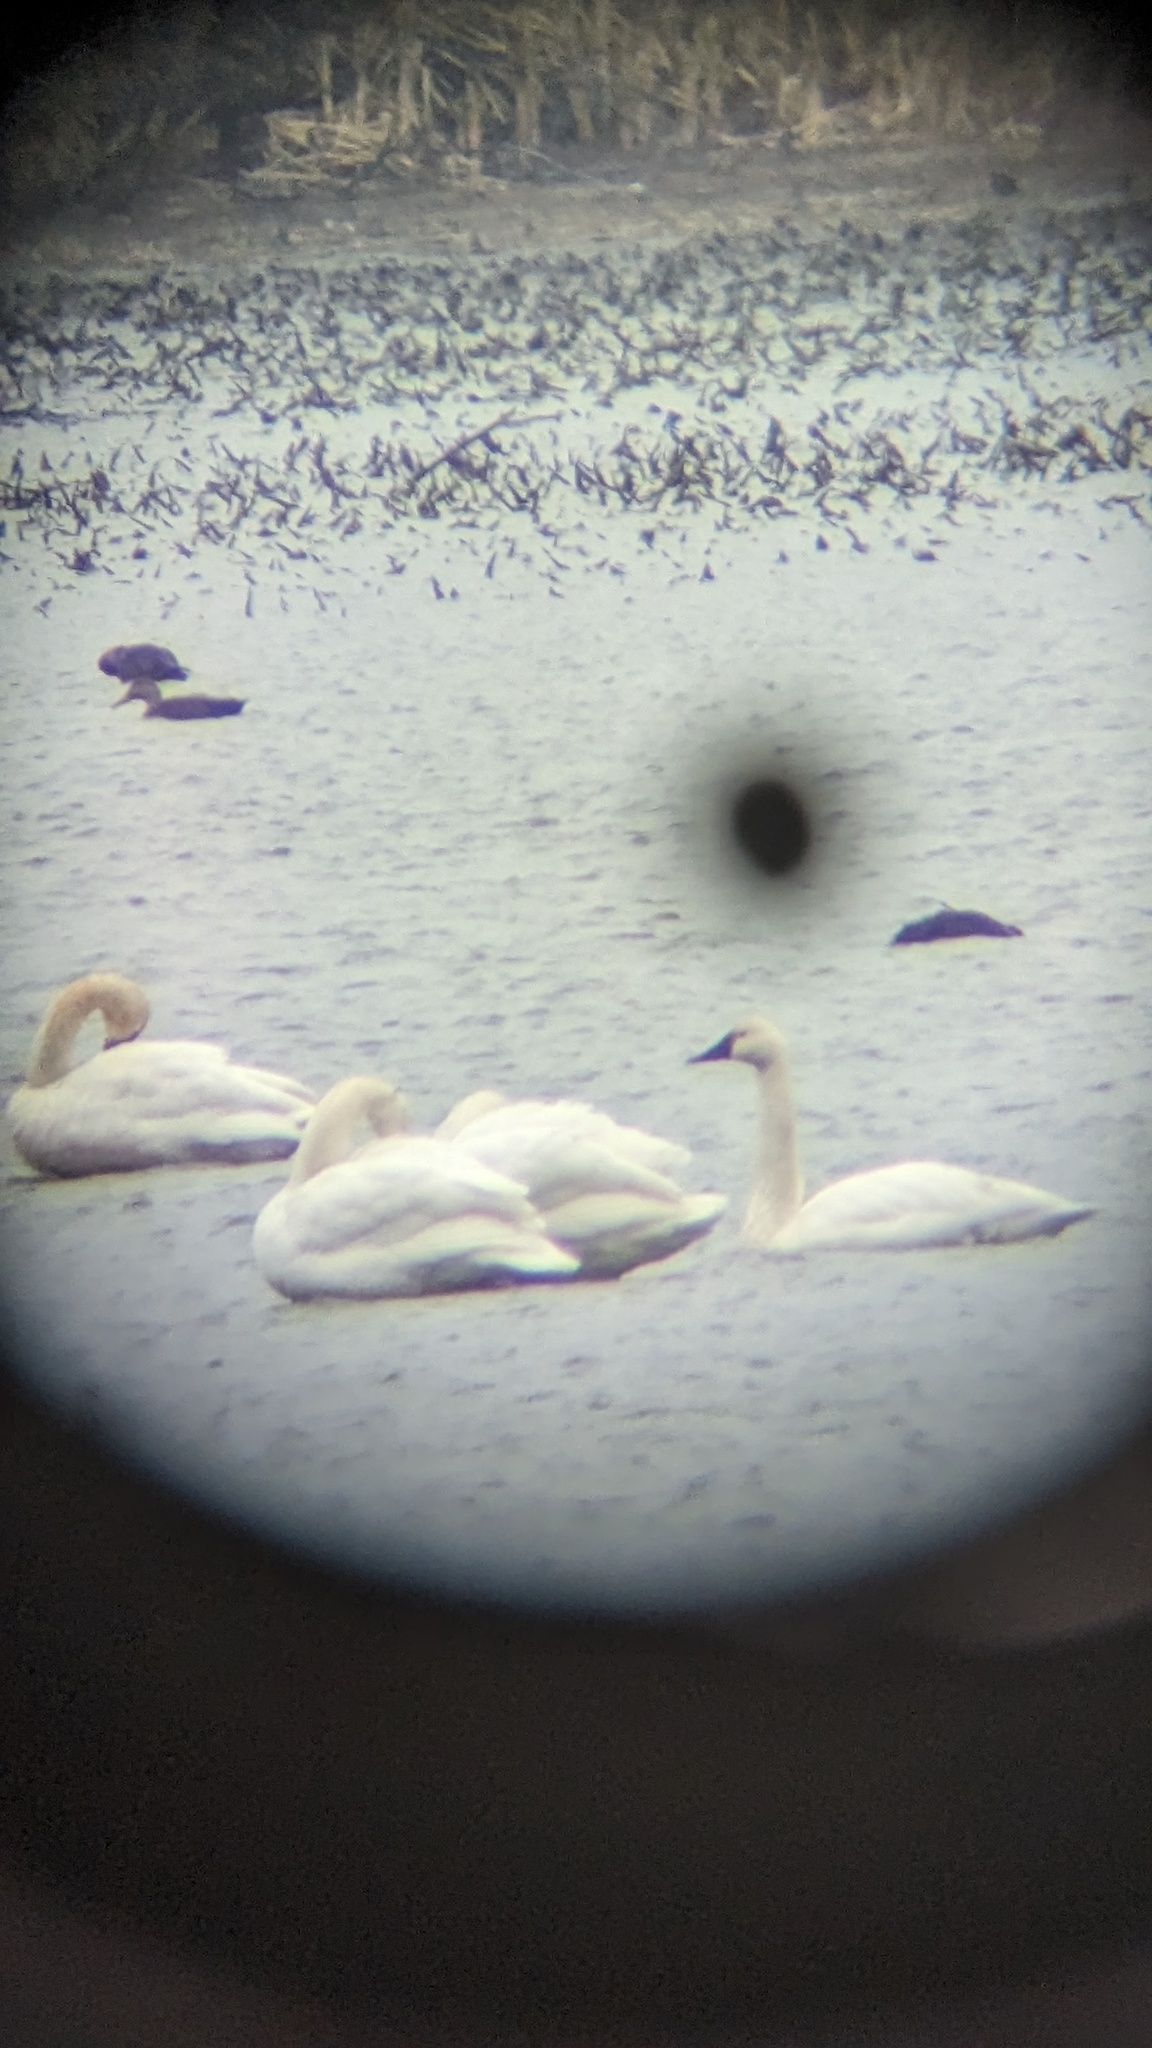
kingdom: Animalia
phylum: Chordata
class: Aves
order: Anseriformes
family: Anatidae
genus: Cygnus
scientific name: Cygnus buccinator
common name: Trumpeter swan
